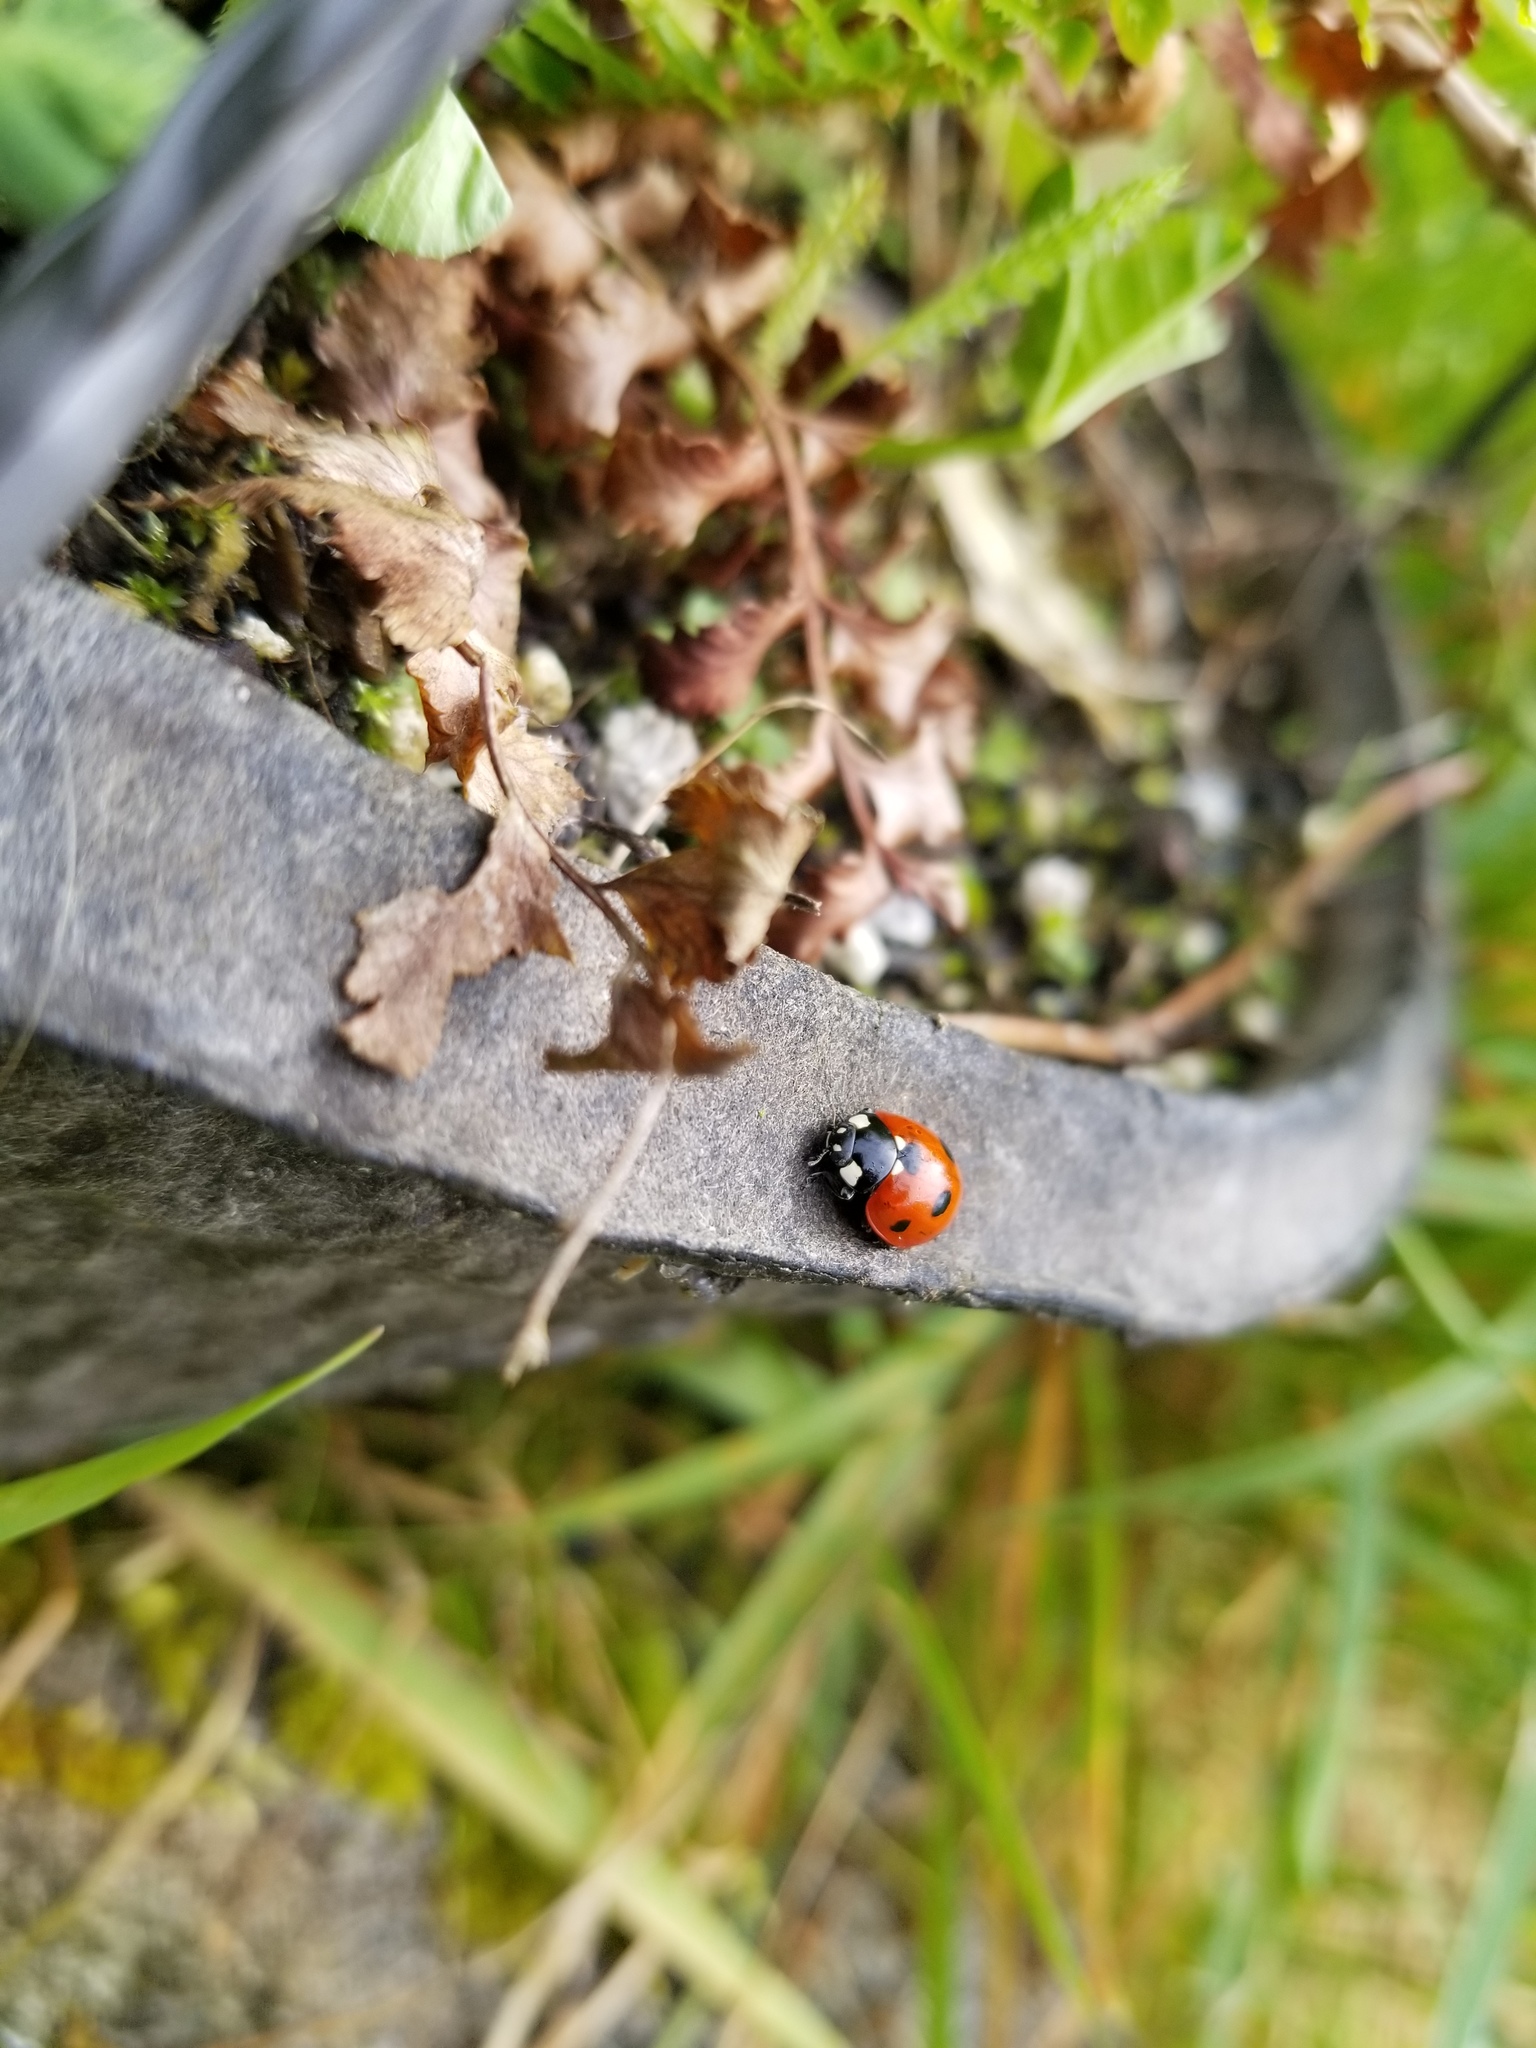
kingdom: Animalia
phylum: Arthropoda
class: Insecta
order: Coleoptera
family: Coccinellidae
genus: Coccinella
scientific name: Coccinella septempunctata
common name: Sevenspotted lady beetle
